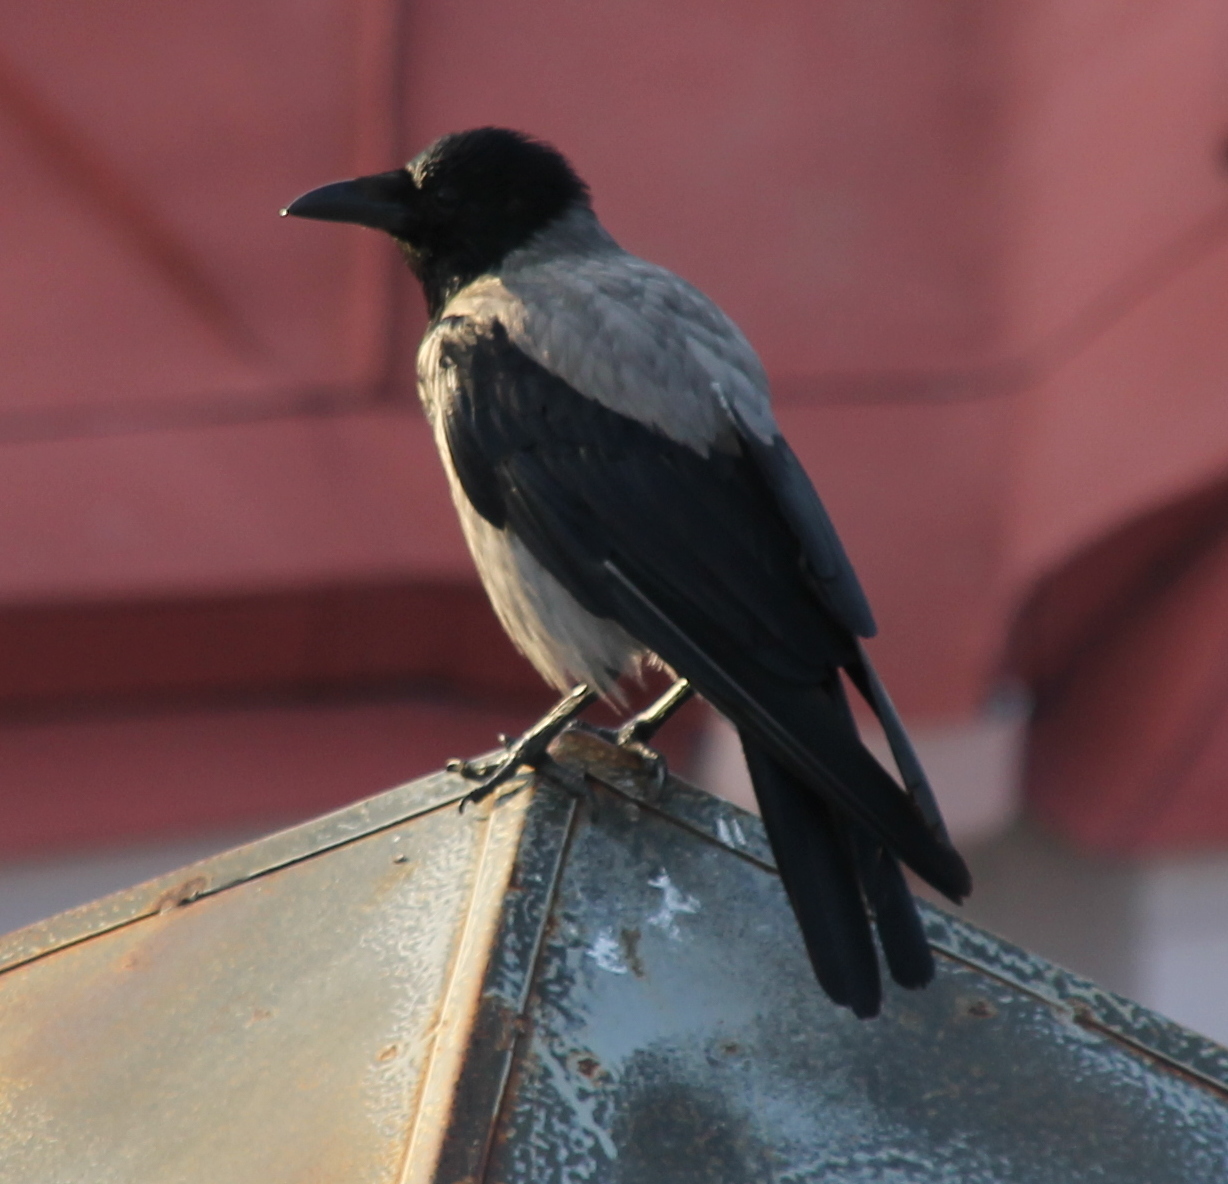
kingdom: Animalia
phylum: Chordata
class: Aves
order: Passeriformes
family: Corvidae
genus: Corvus
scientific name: Corvus cornix
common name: Hooded crow
